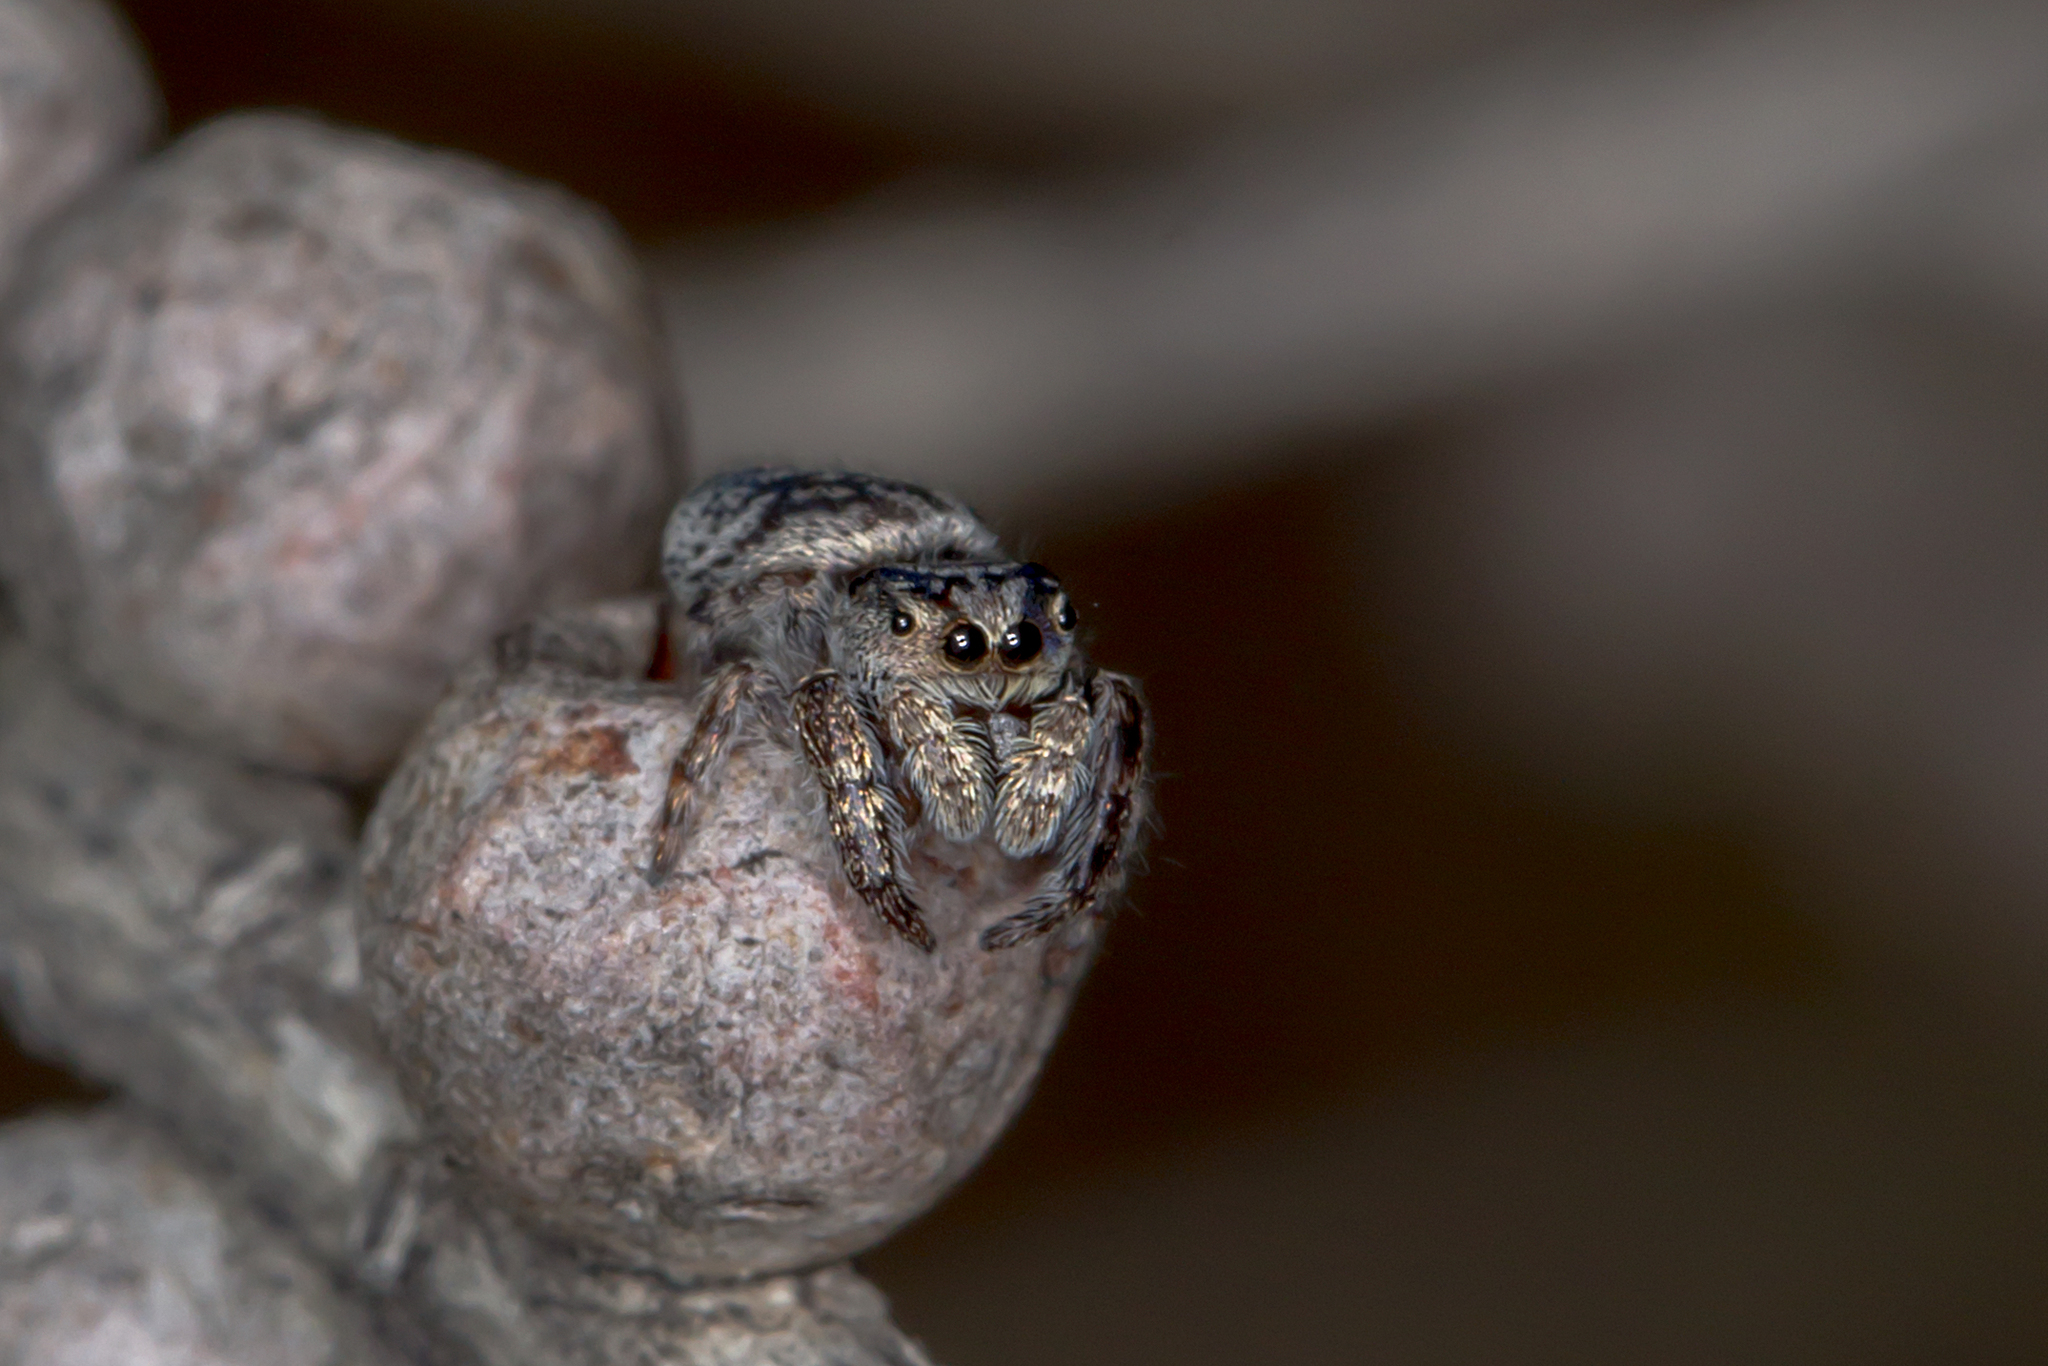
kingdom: Animalia
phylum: Arthropoda
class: Arachnida
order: Araneae
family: Salticidae
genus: Simaetha
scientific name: Simaetha tenuidens
